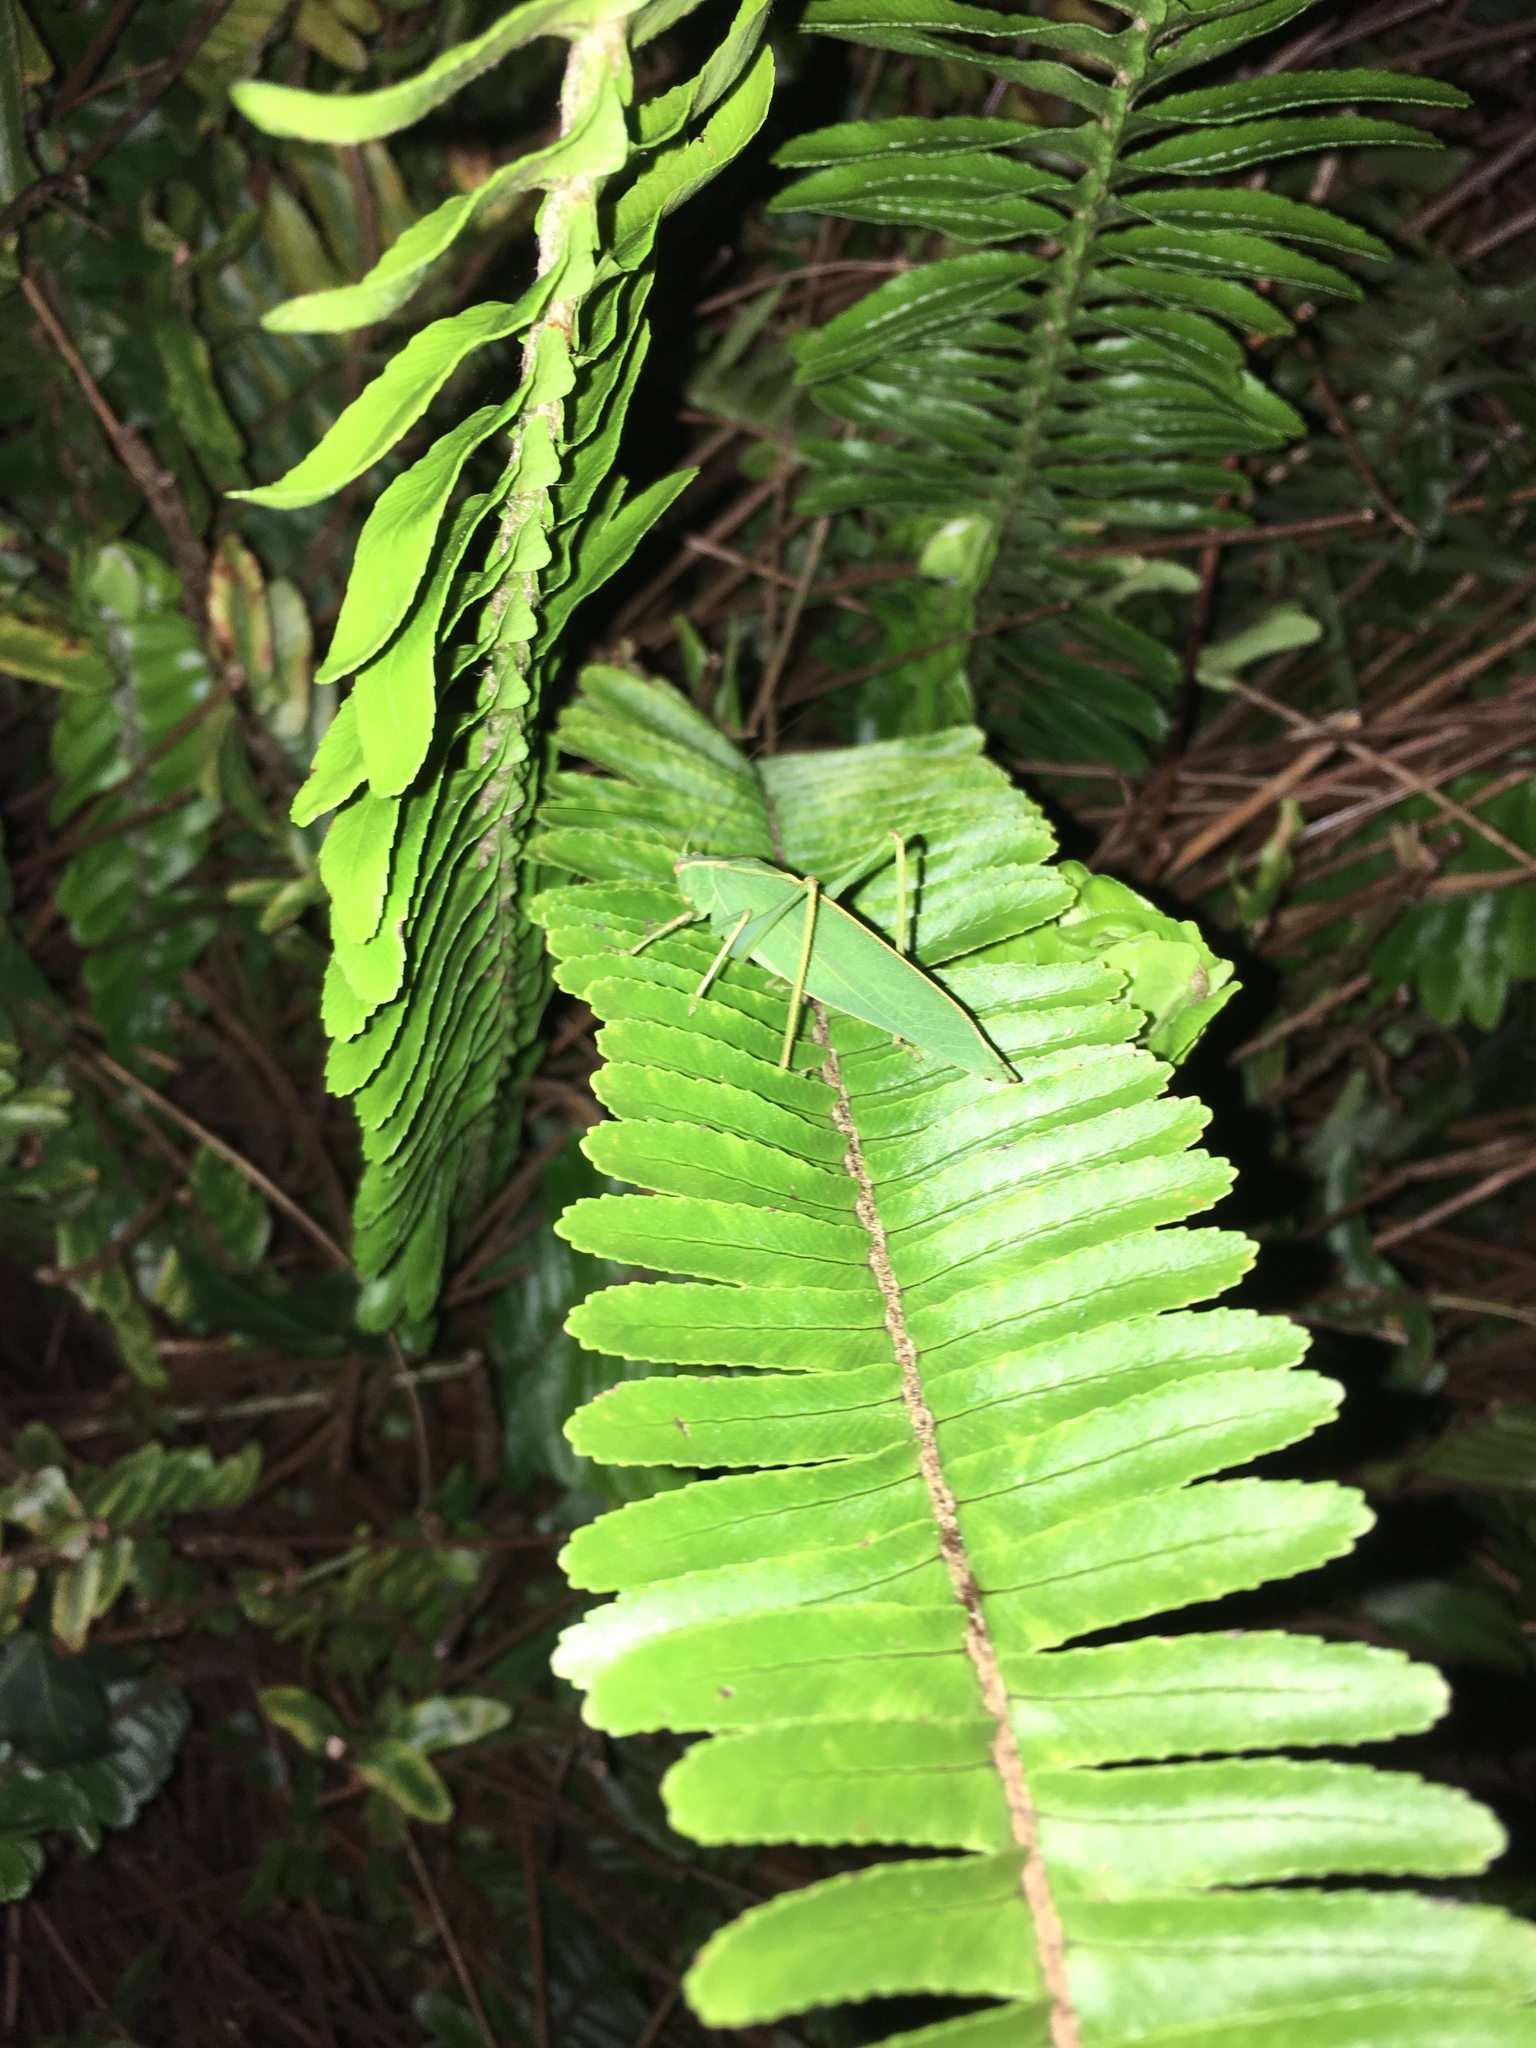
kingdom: Animalia
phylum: Arthropoda
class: Insecta
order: Orthoptera
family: Tettigoniidae
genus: Caedicia
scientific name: Caedicia simplex
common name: Common garden katydid
